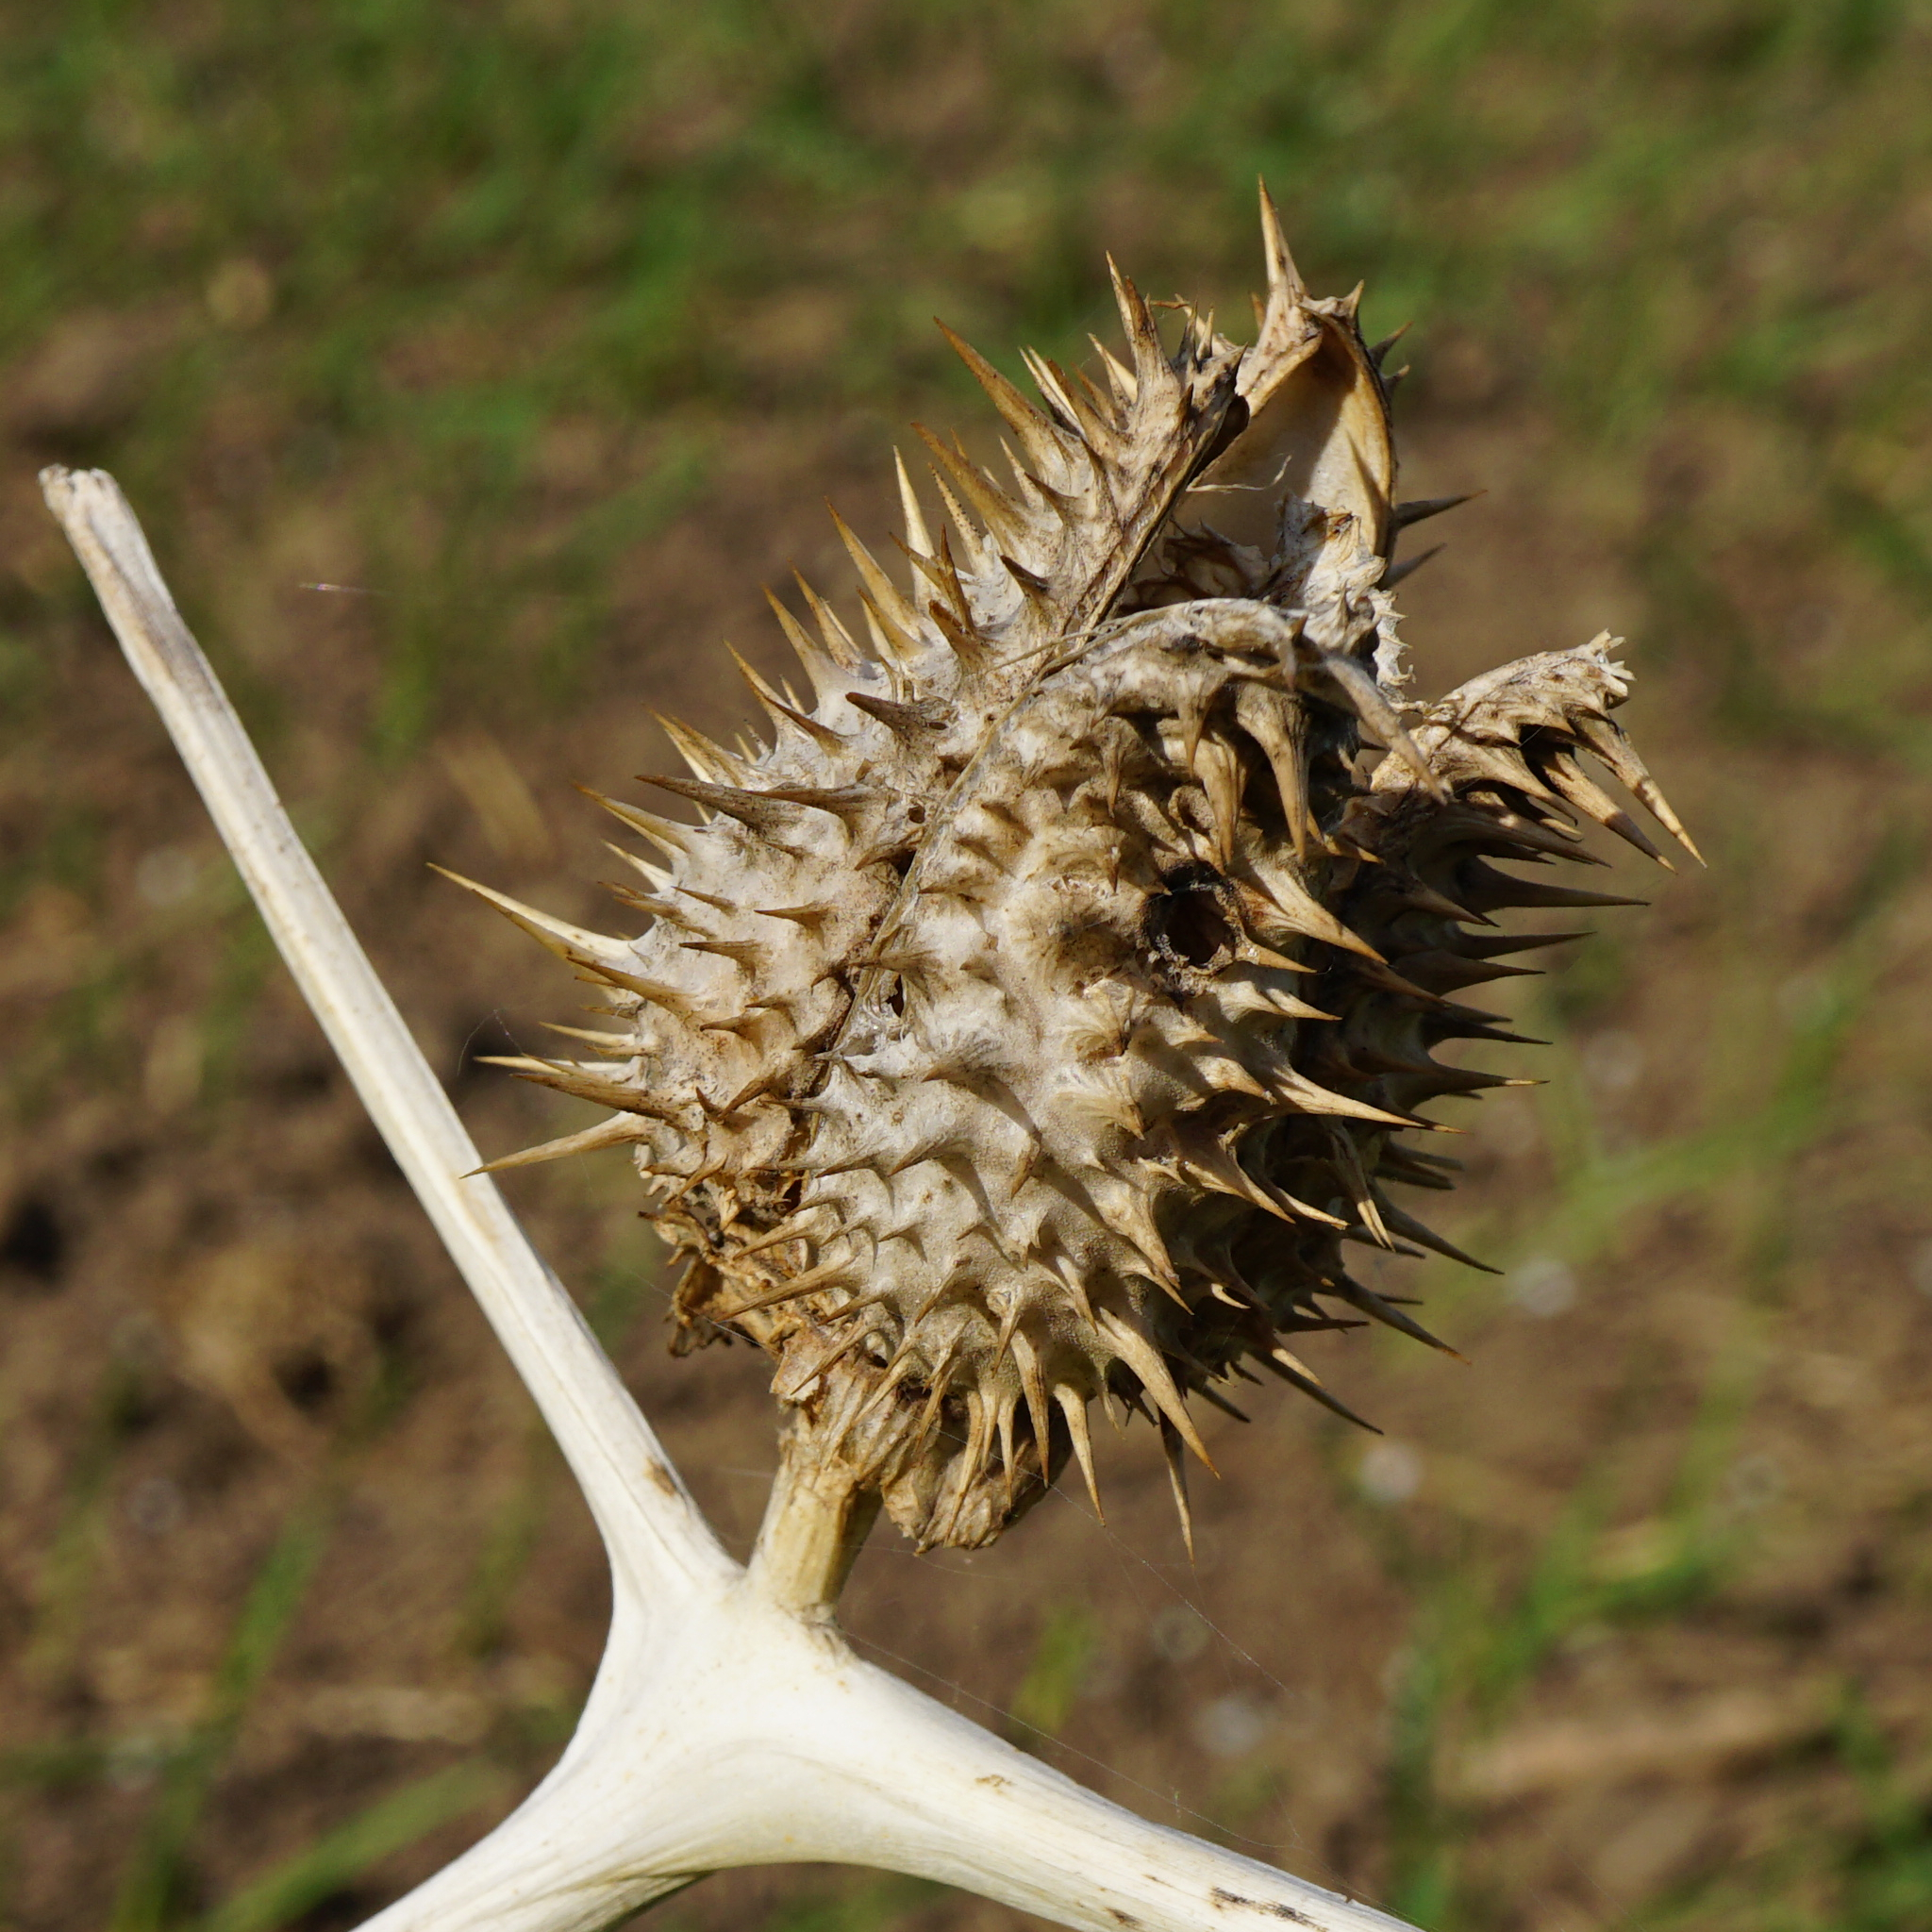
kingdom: Plantae
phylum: Tracheophyta
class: Magnoliopsida
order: Solanales
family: Solanaceae
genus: Datura
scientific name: Datura stramonium
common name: Thorn-apple
